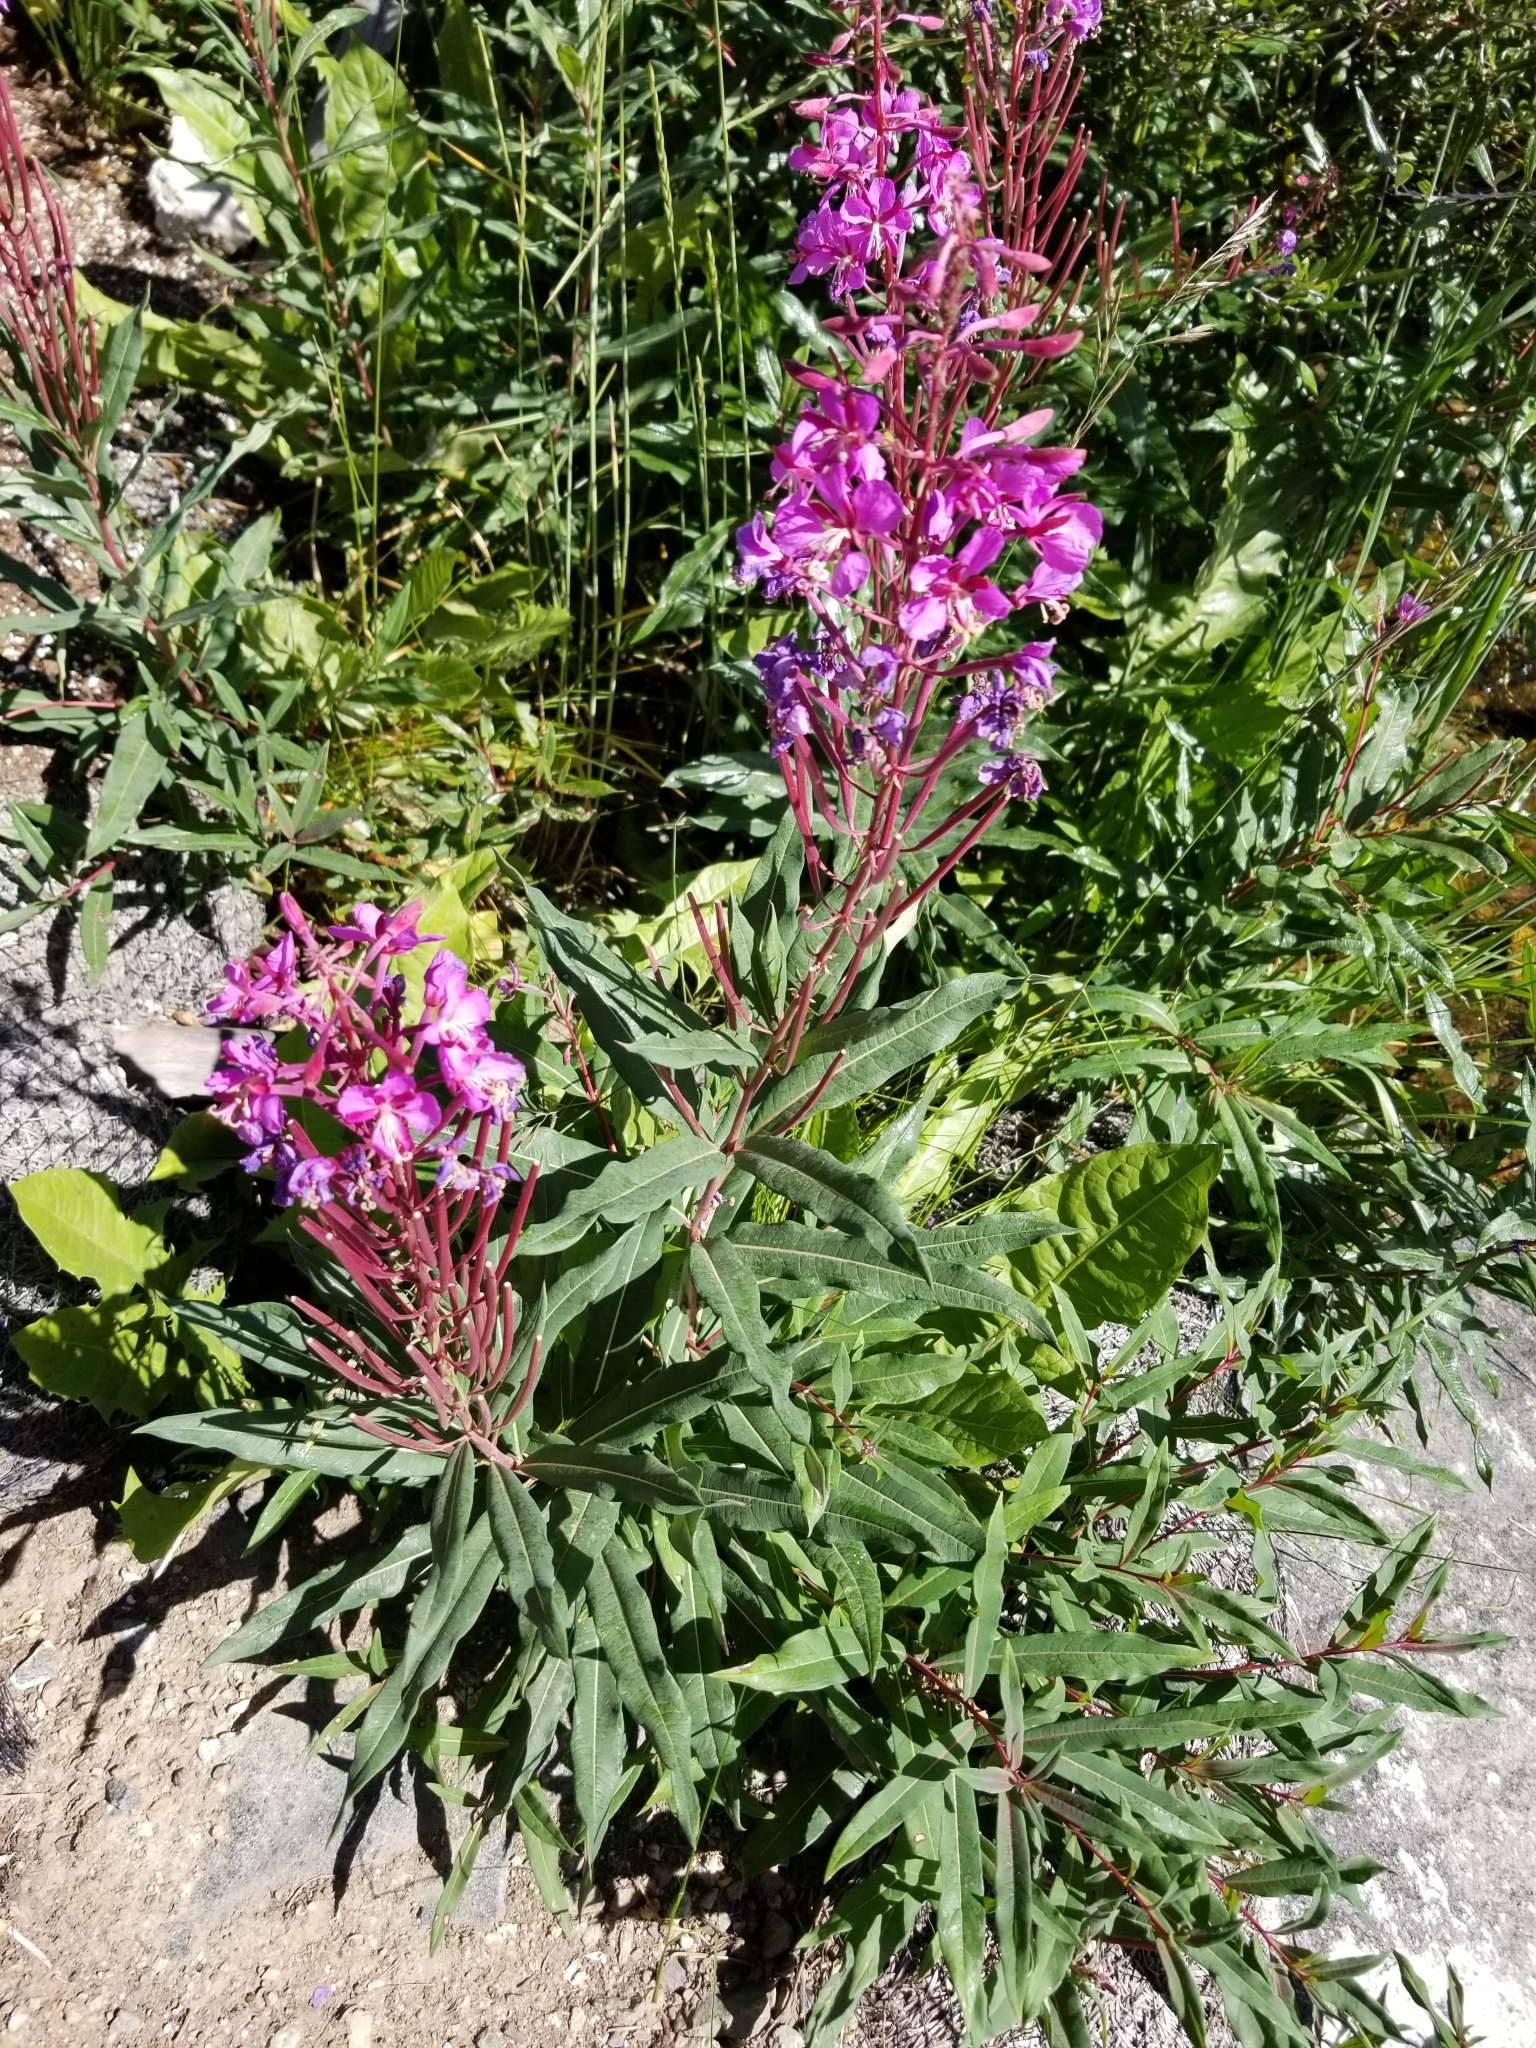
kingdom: Plantae
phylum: Tracheophyta
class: Magnoliopsida
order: Myrtales
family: Onagraceae
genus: Chamaenerion
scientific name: Chamaenerion angustifolium
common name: Fireweed
